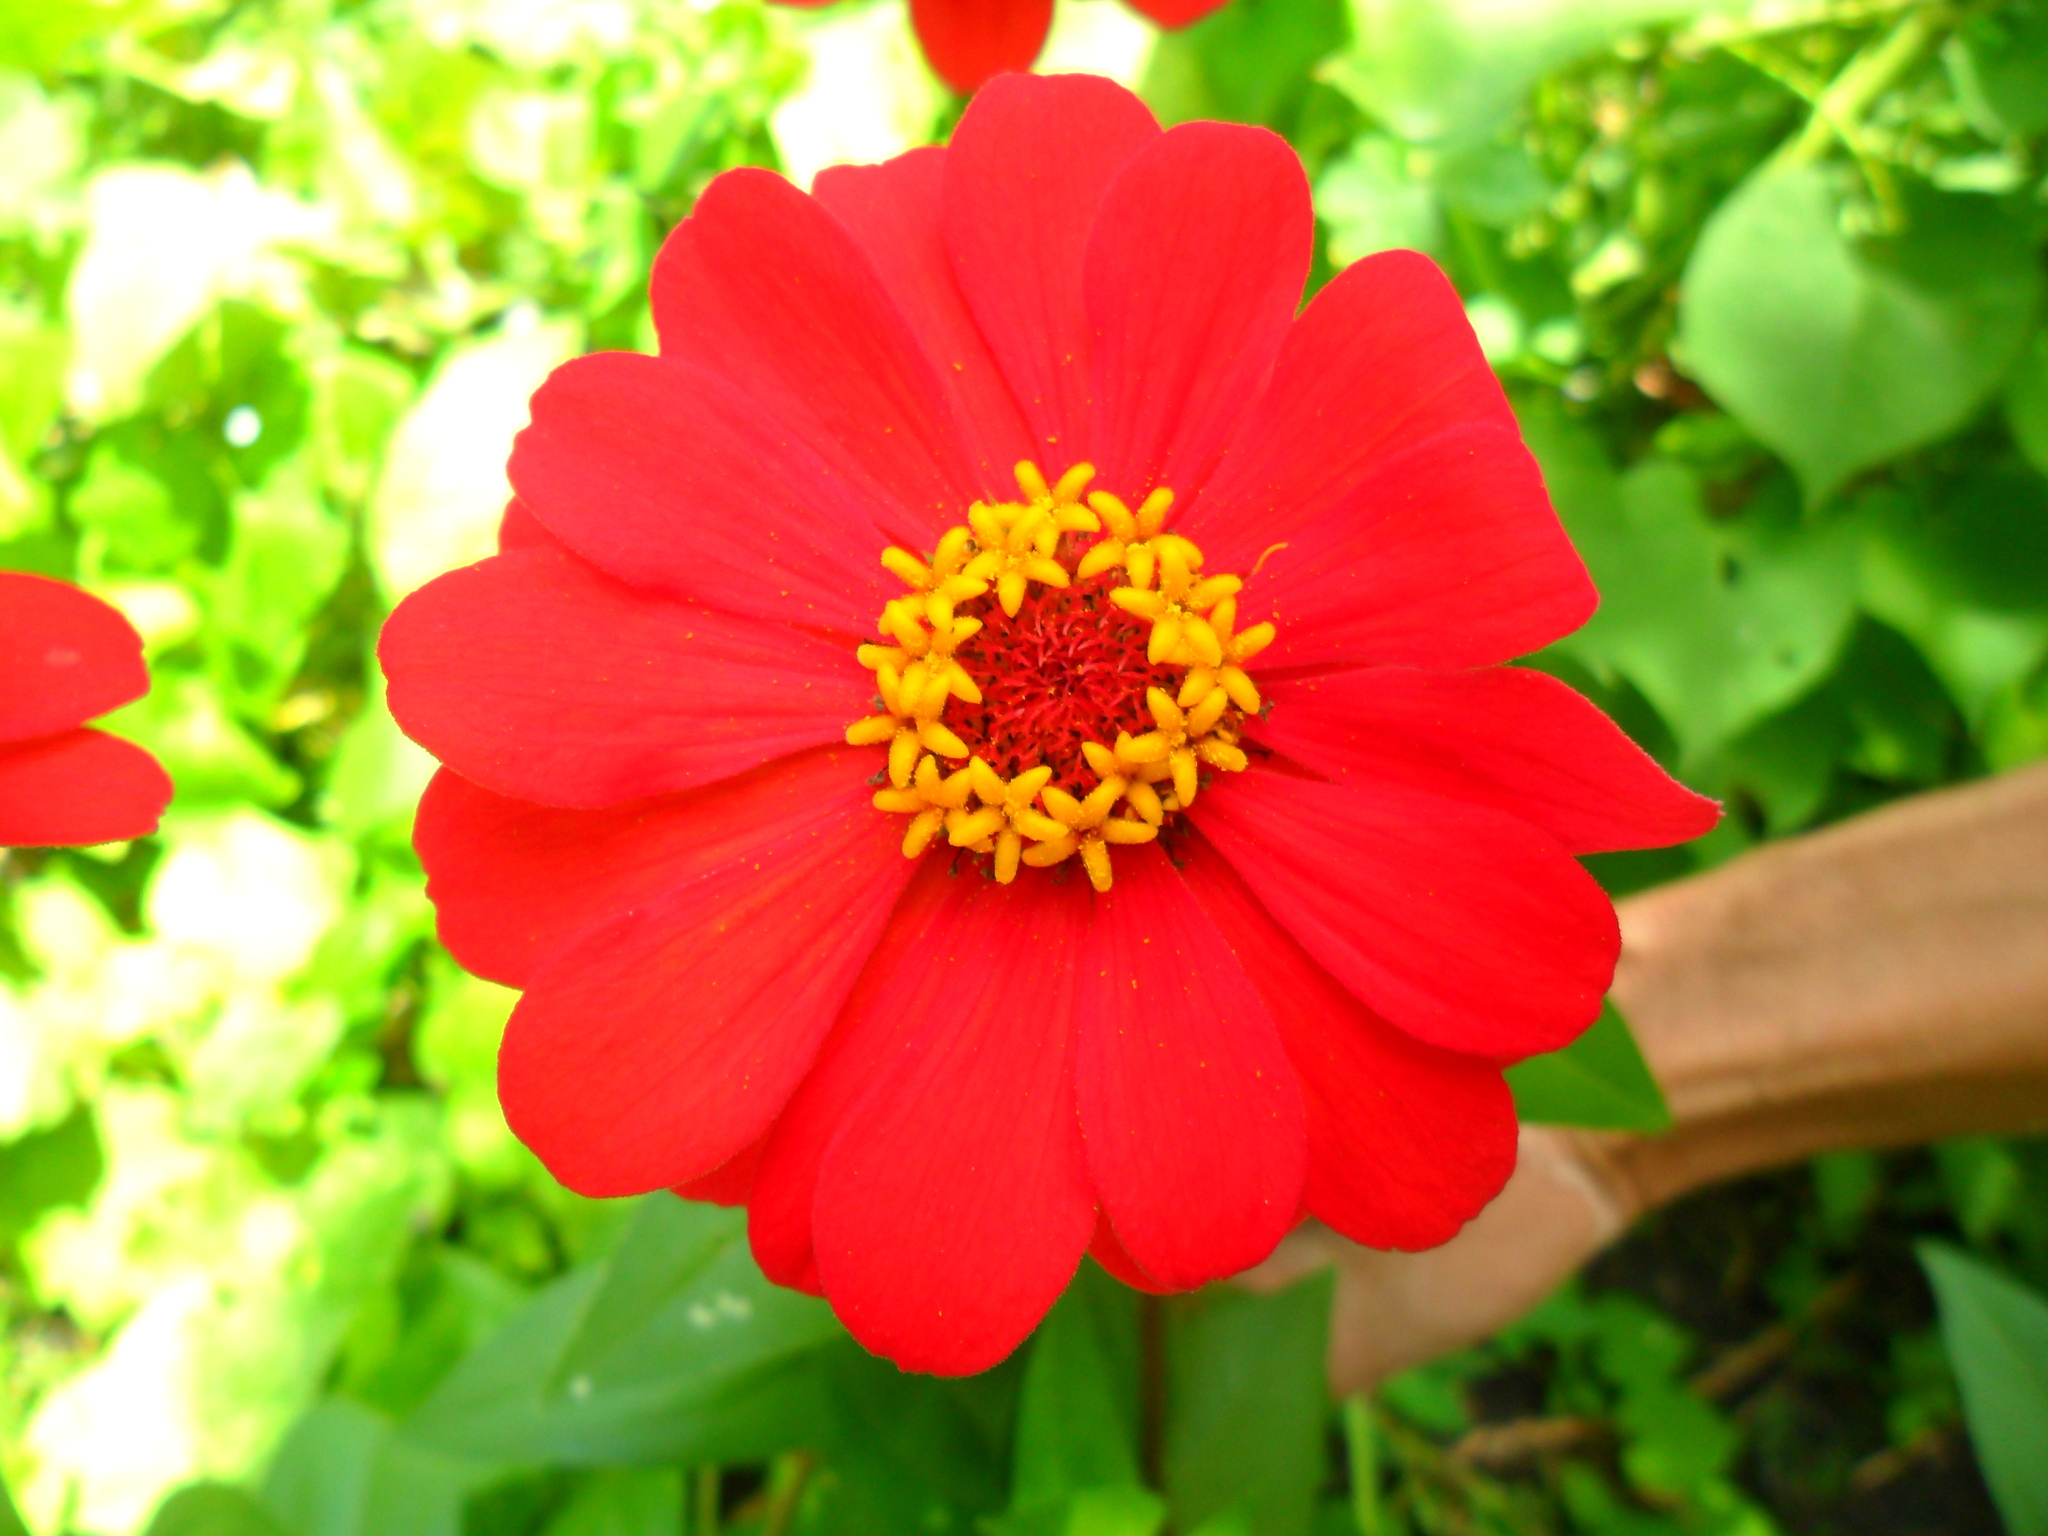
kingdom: Plantae
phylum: Tracheophyta
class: Magnoliopsida
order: Asterales
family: Asteraceae
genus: Zinnia
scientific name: Zinnia elegans
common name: Youth-and-age
